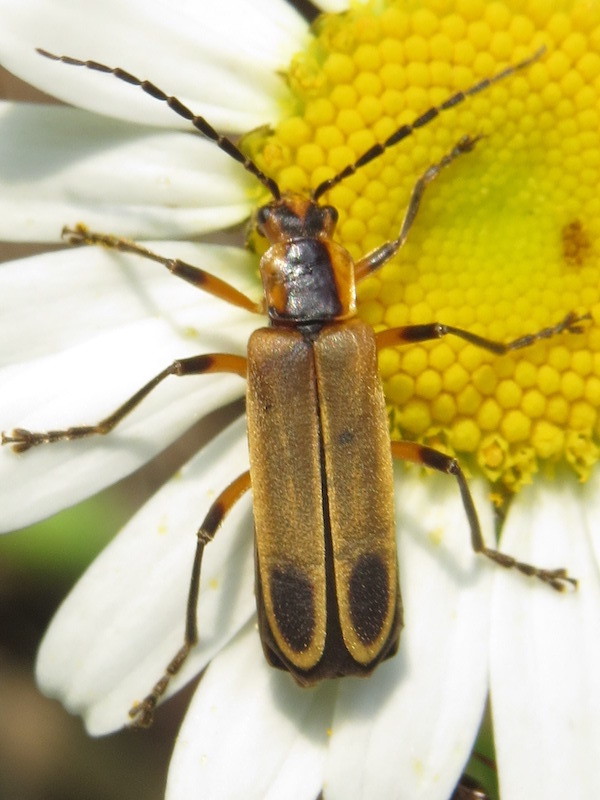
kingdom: Animalia
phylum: Arthropoda
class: Insecta
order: Coleoptera
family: Cantharidae
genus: Chauliognathus
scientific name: Chauliognathus marginatus
